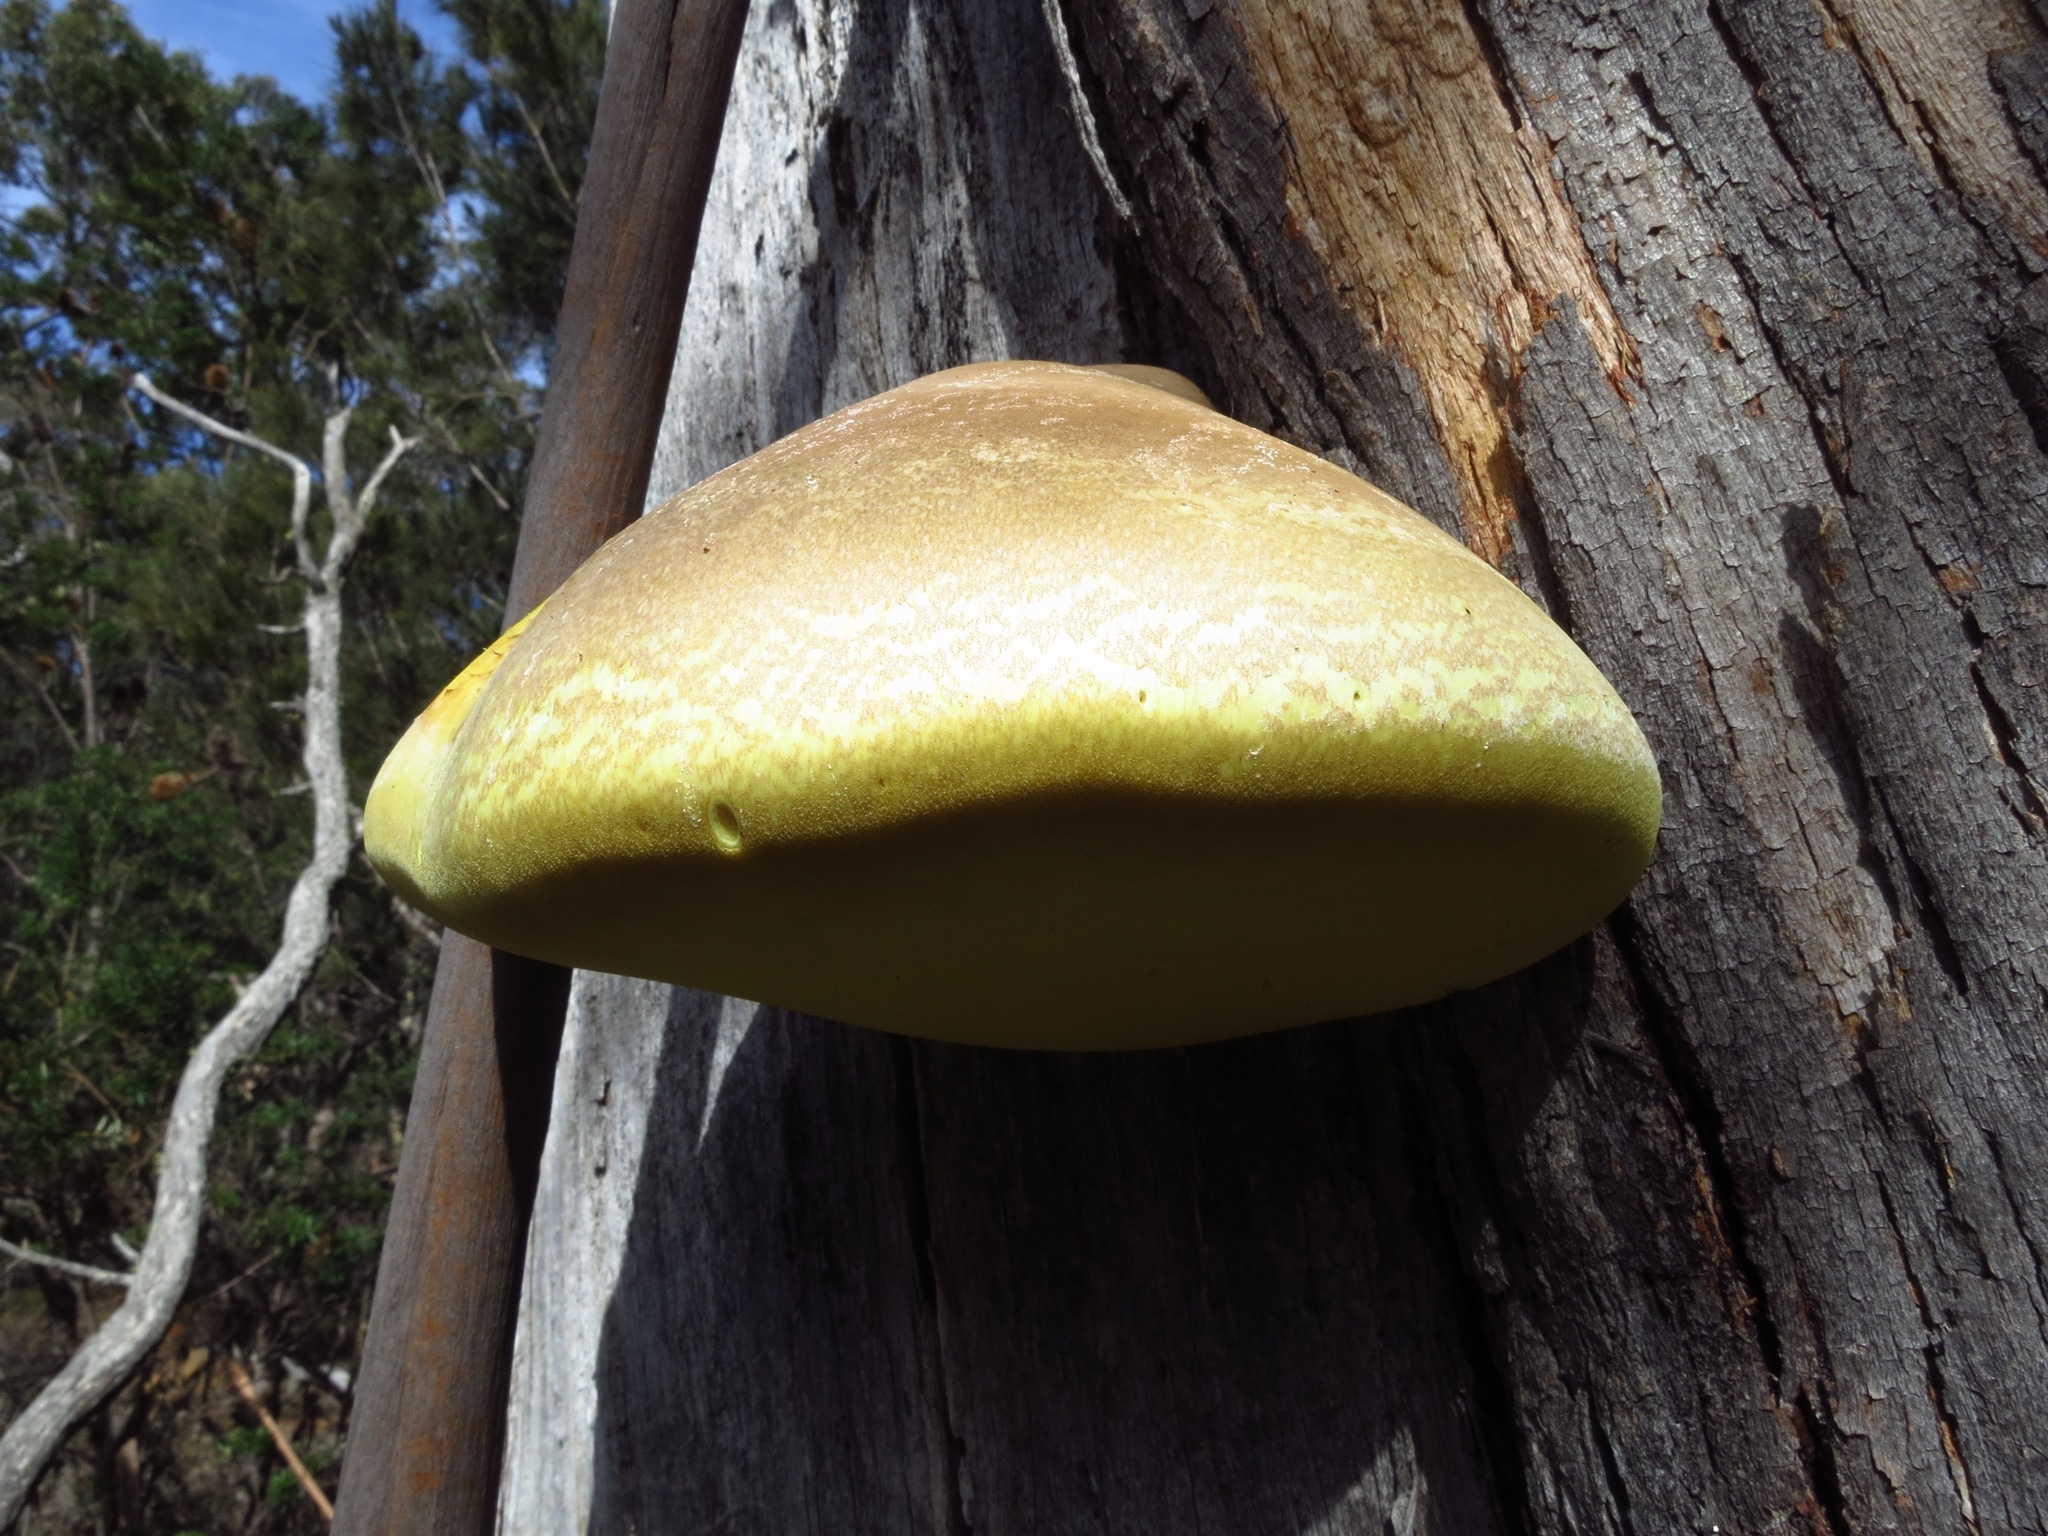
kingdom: Fungi
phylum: Basidiomycota
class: Agaricomycetes
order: Polyporales
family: Laetiporaceae
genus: Laetiporus
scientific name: Laetiporus portentosus
